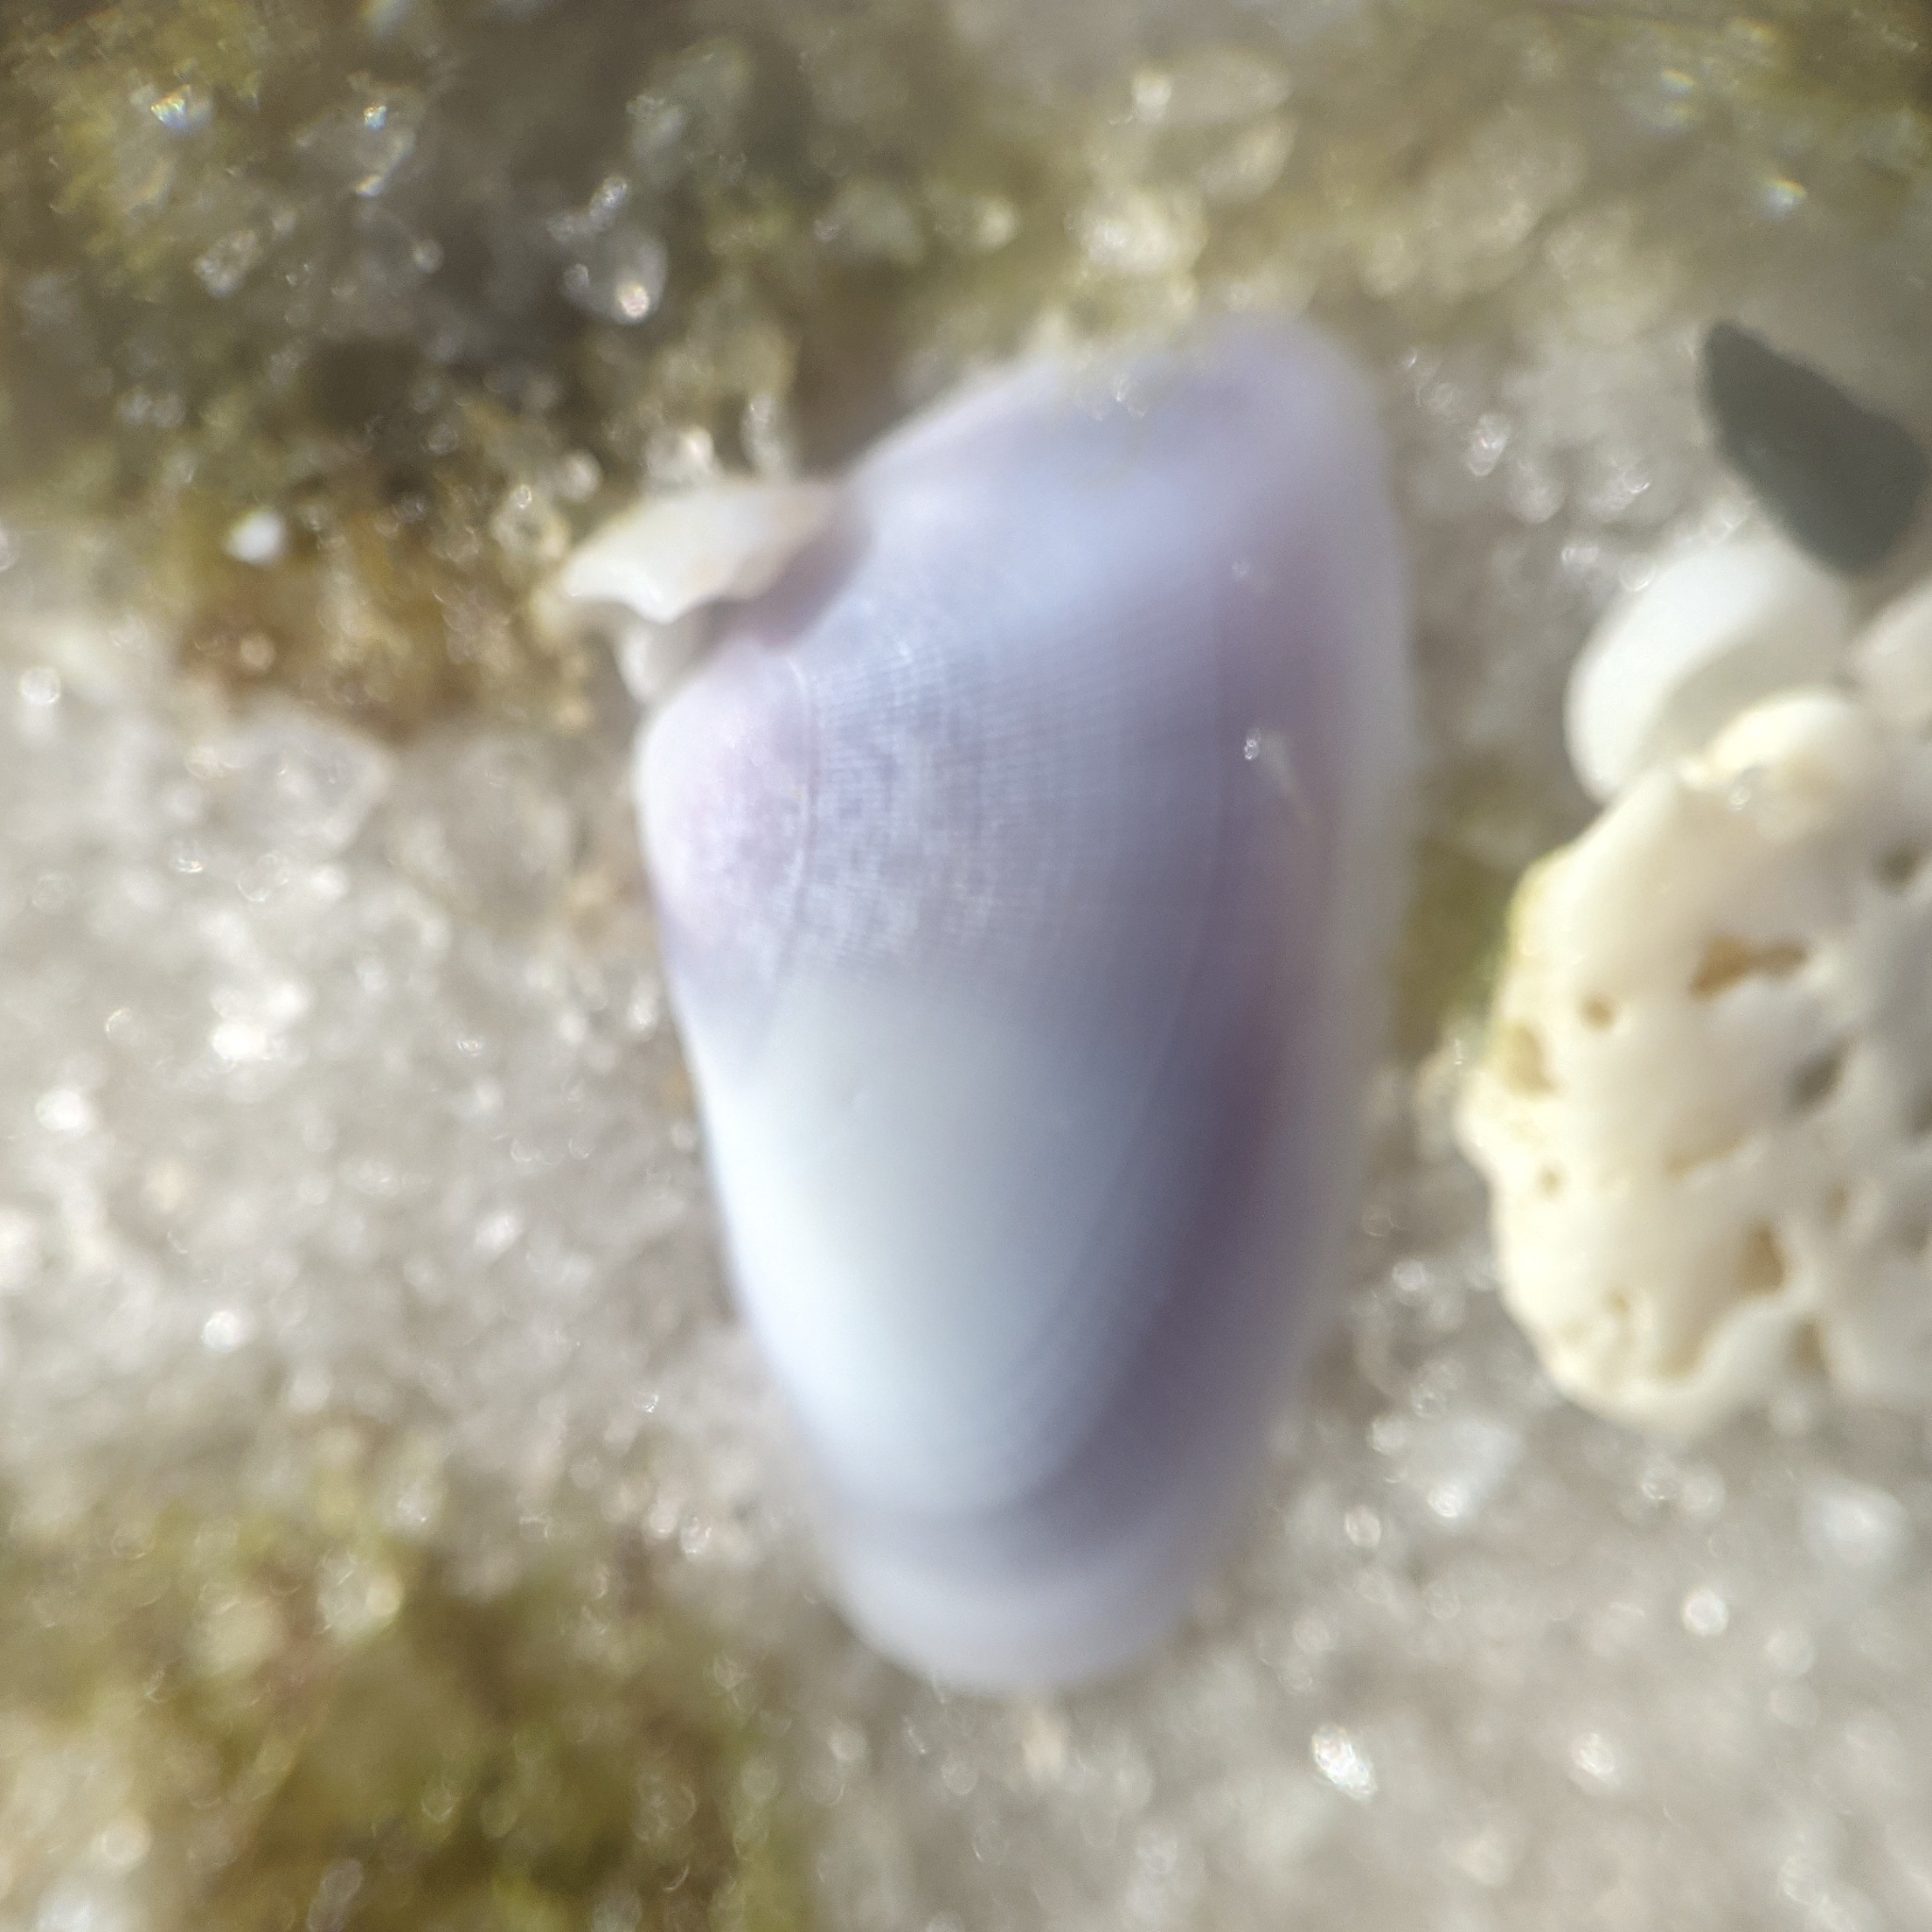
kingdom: Animalia
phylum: Mollusca
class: Bivalvia
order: Cardiida
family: Donacidae
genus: Donax
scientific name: Donax variabilis
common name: Butterfly shell
